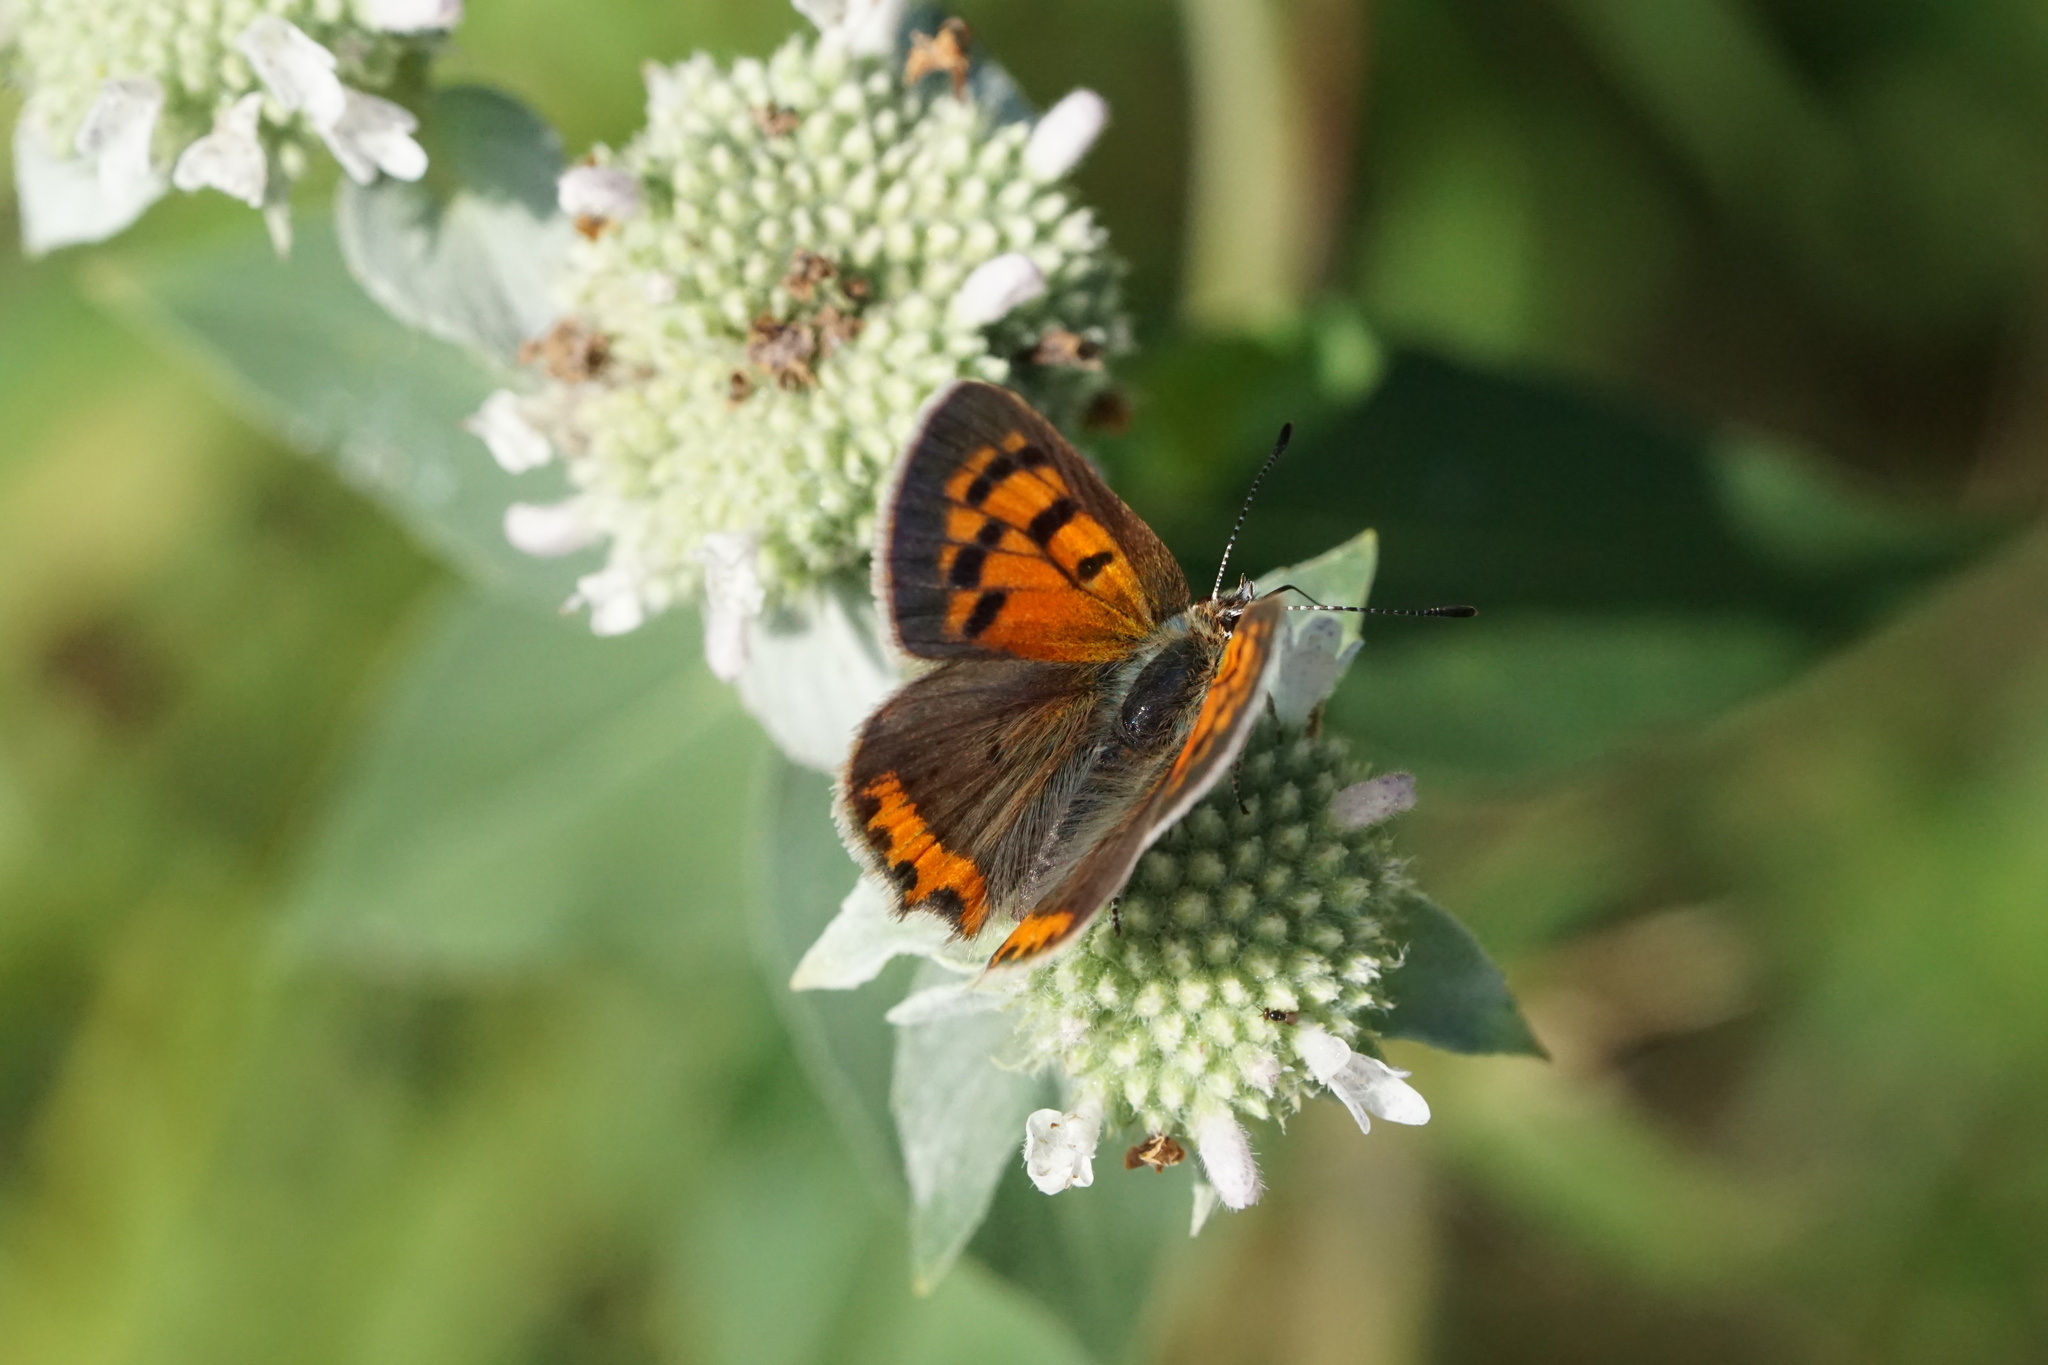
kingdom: Animalia
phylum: Arthropoda
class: Insecta
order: Lepidoptera
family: Lycaenidae
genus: Lycaena
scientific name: Lycaena hypophlaeas
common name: American copper
